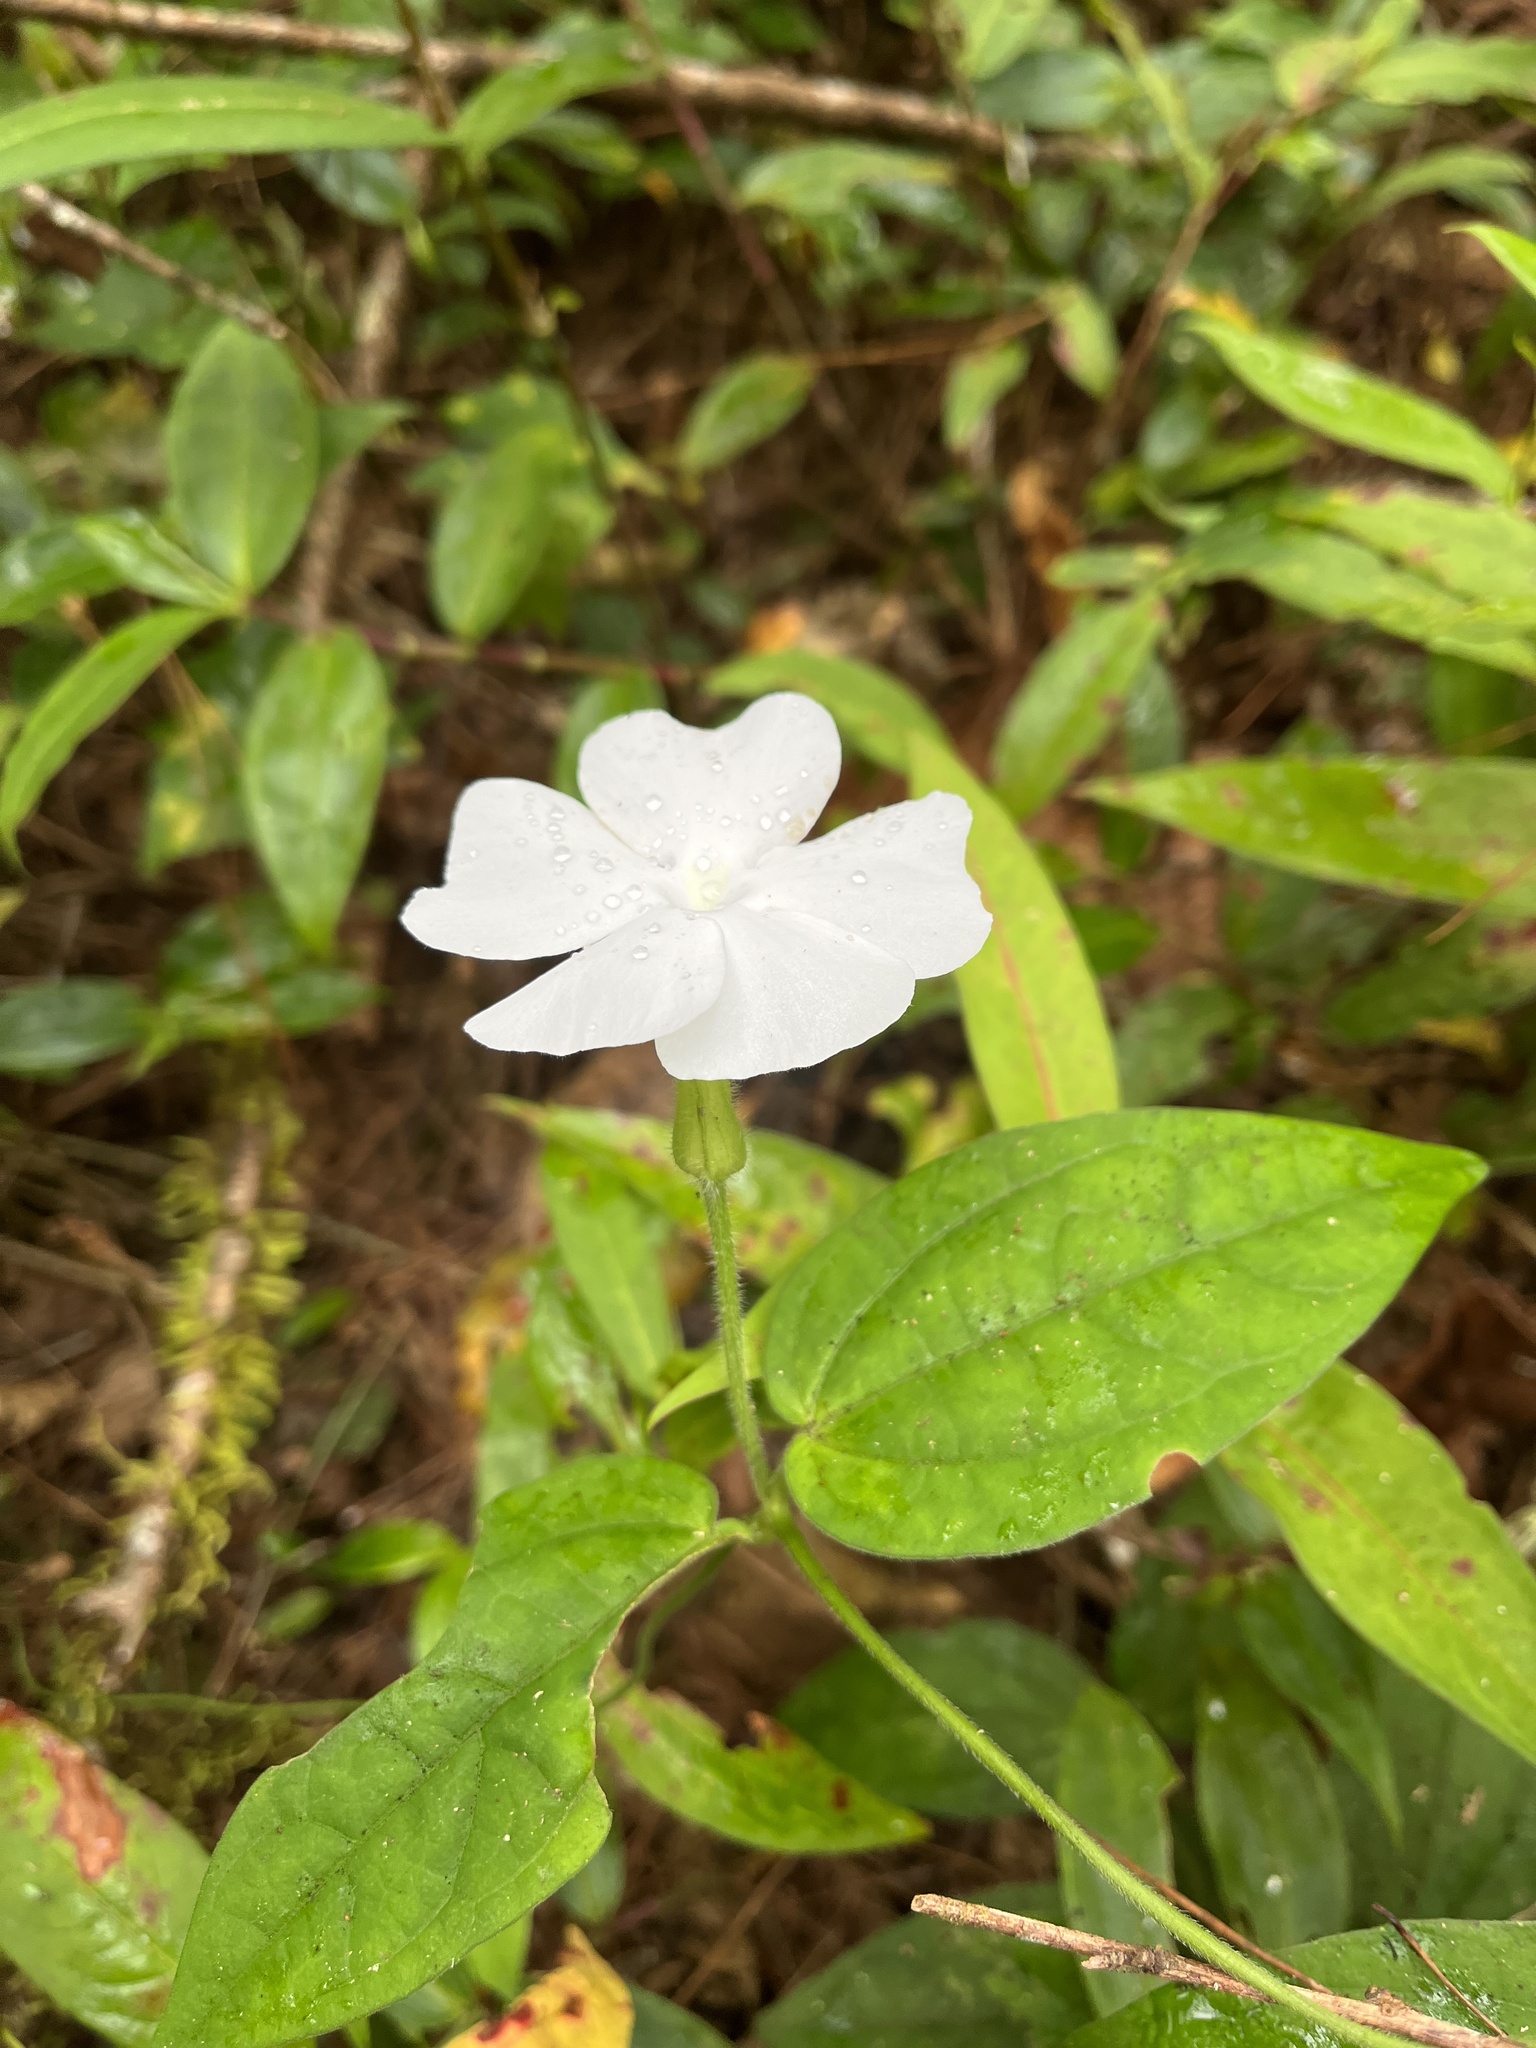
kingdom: Plantae
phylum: Tracheophyta
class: Magnoliopsida
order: Lamiales
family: Acanthaceae
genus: Thunbergia
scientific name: Thunbergia fragrans
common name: Whitelady
